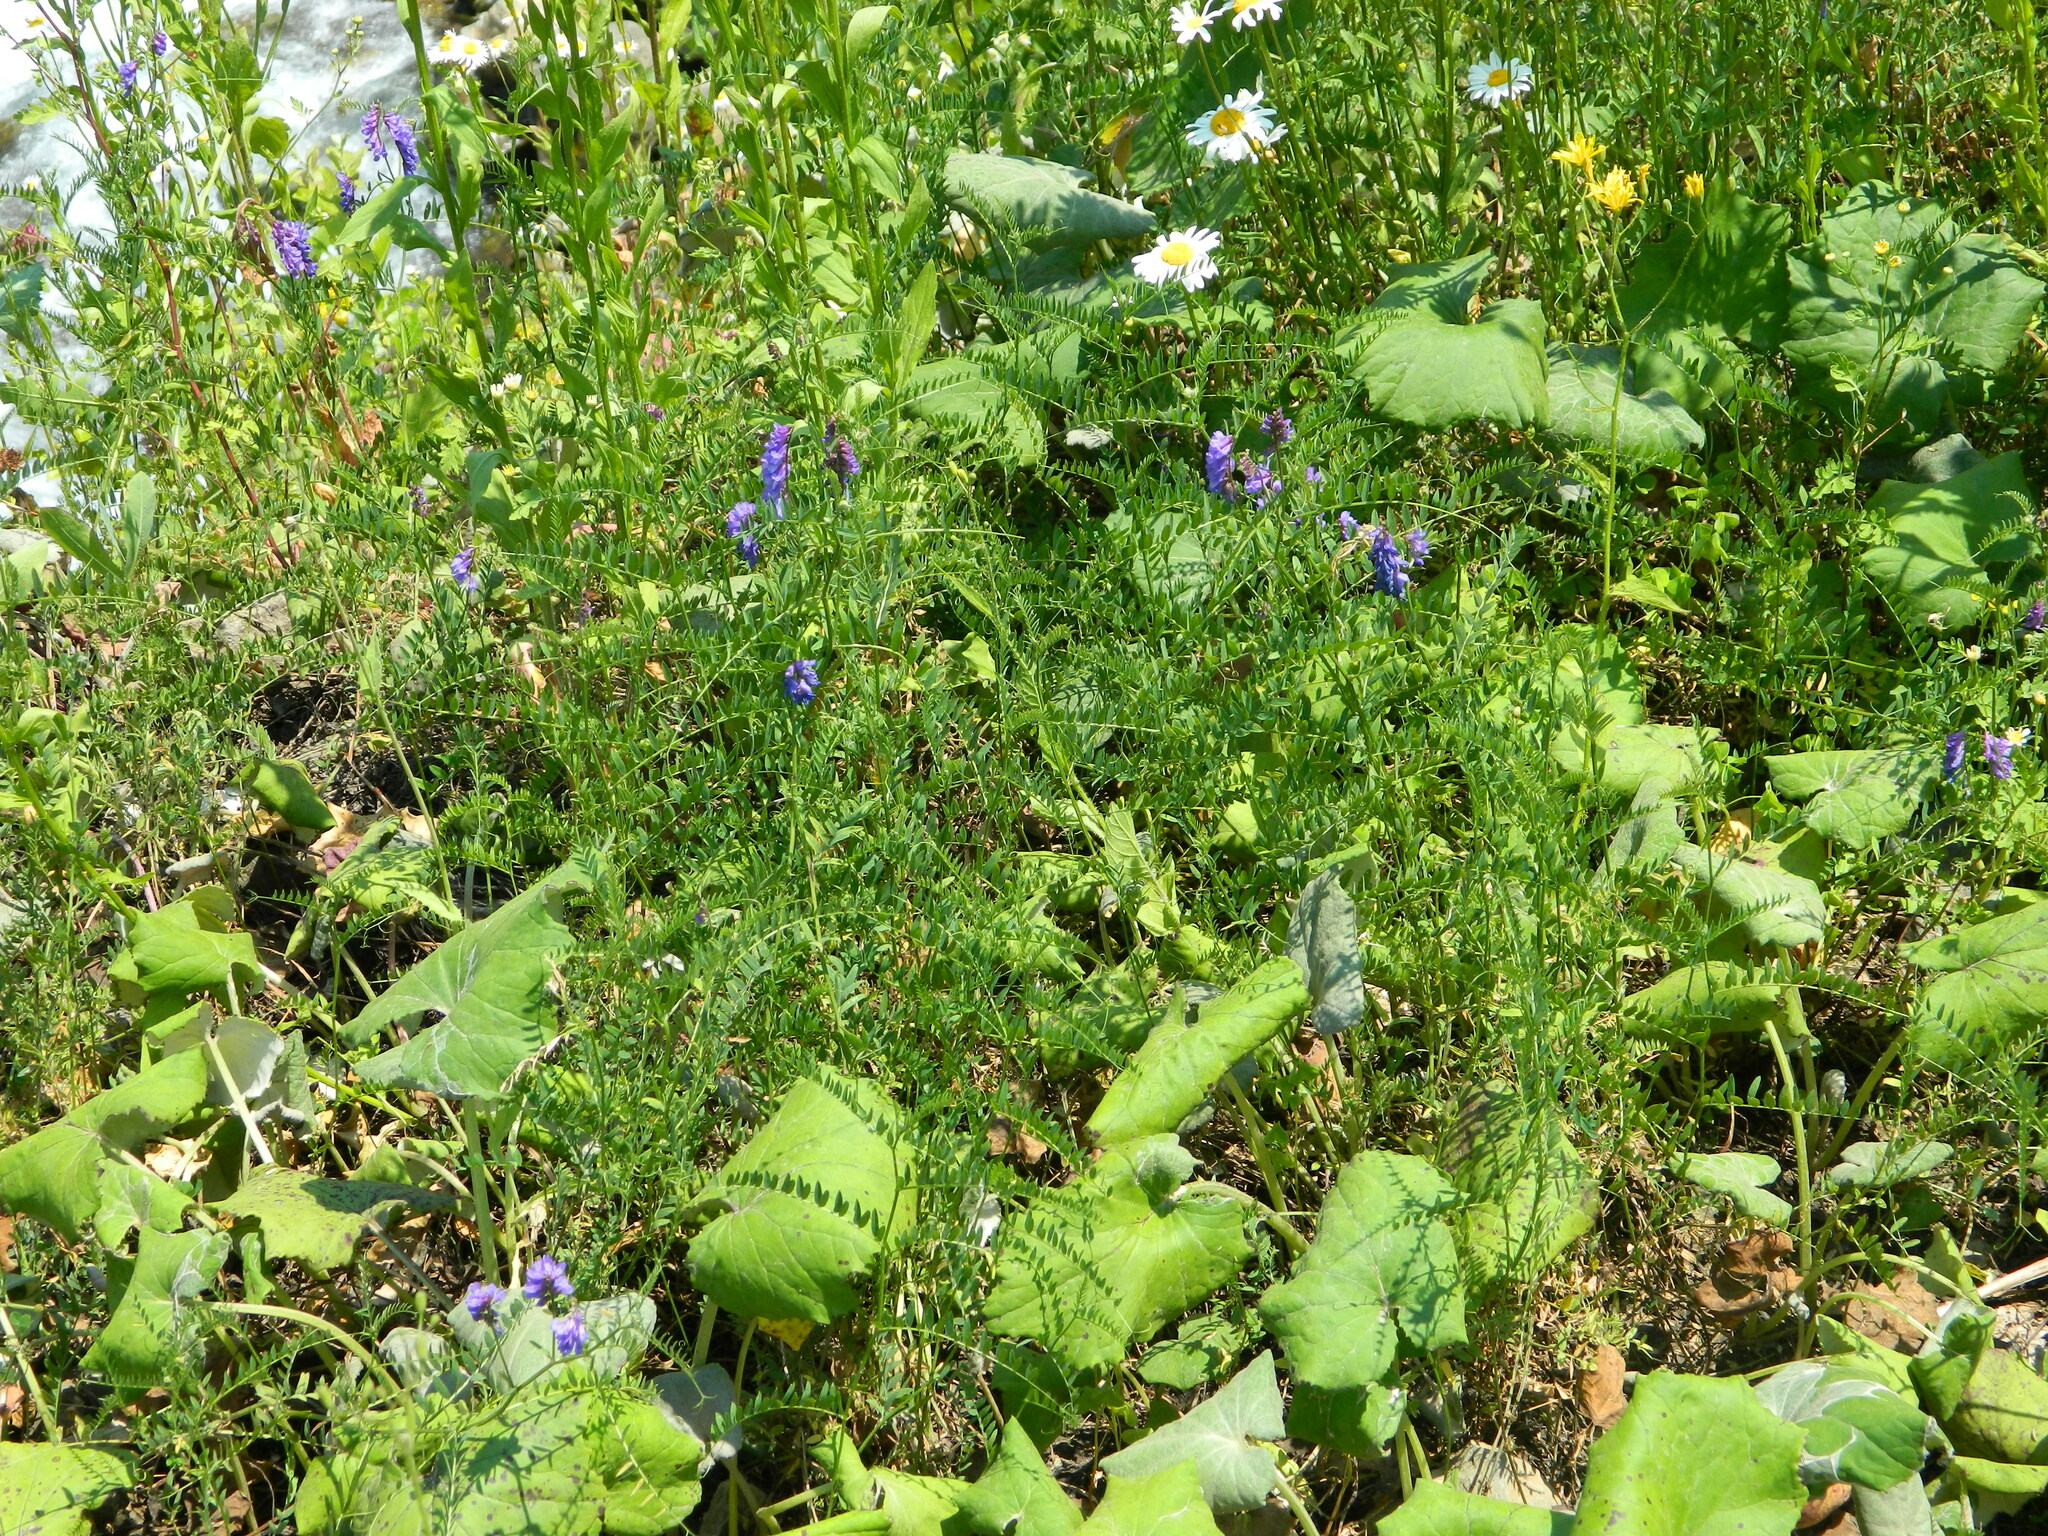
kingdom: Plantae
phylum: Tracheophyta
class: Magnoliopsida
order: Fabales
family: Fabaceae
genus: Vicia
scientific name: Vicia cracca
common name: Bird vetch
